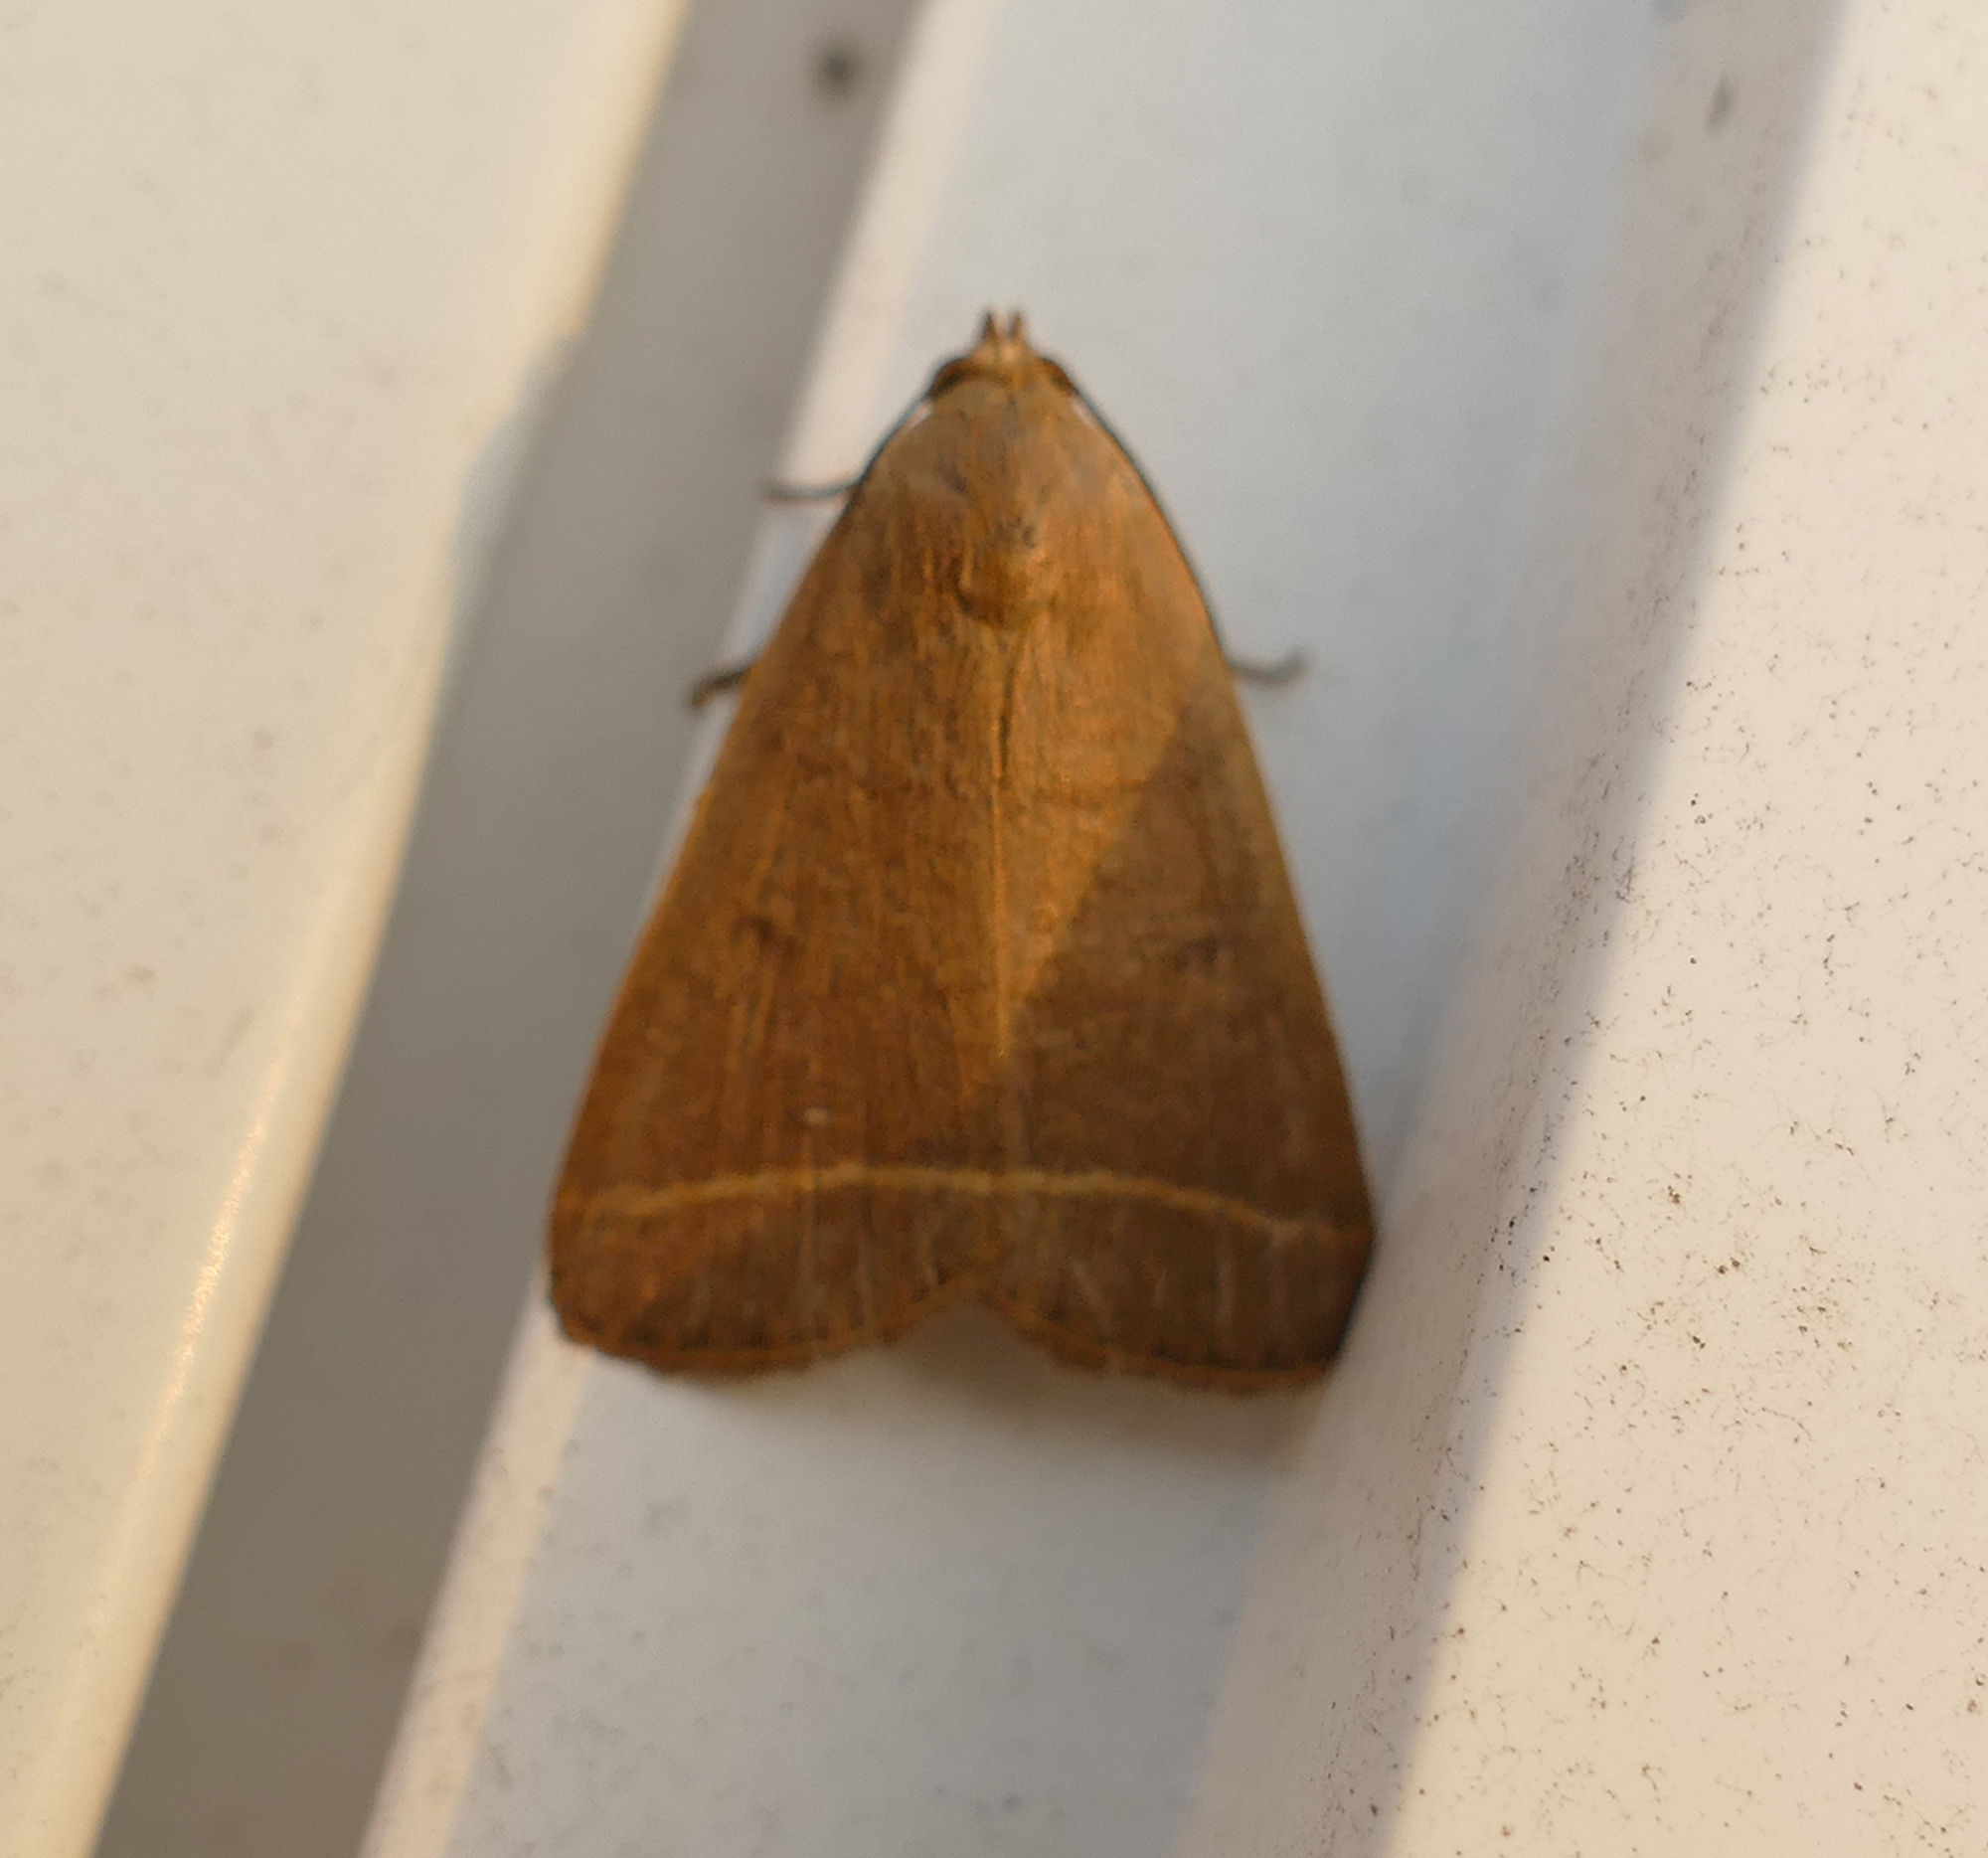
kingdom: Animalia
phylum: Arthropoda
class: Insecta
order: Lepidoptera
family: Erebidae
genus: Simplicia
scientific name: Simplicia cornicalis
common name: Tiki hut litter moth
